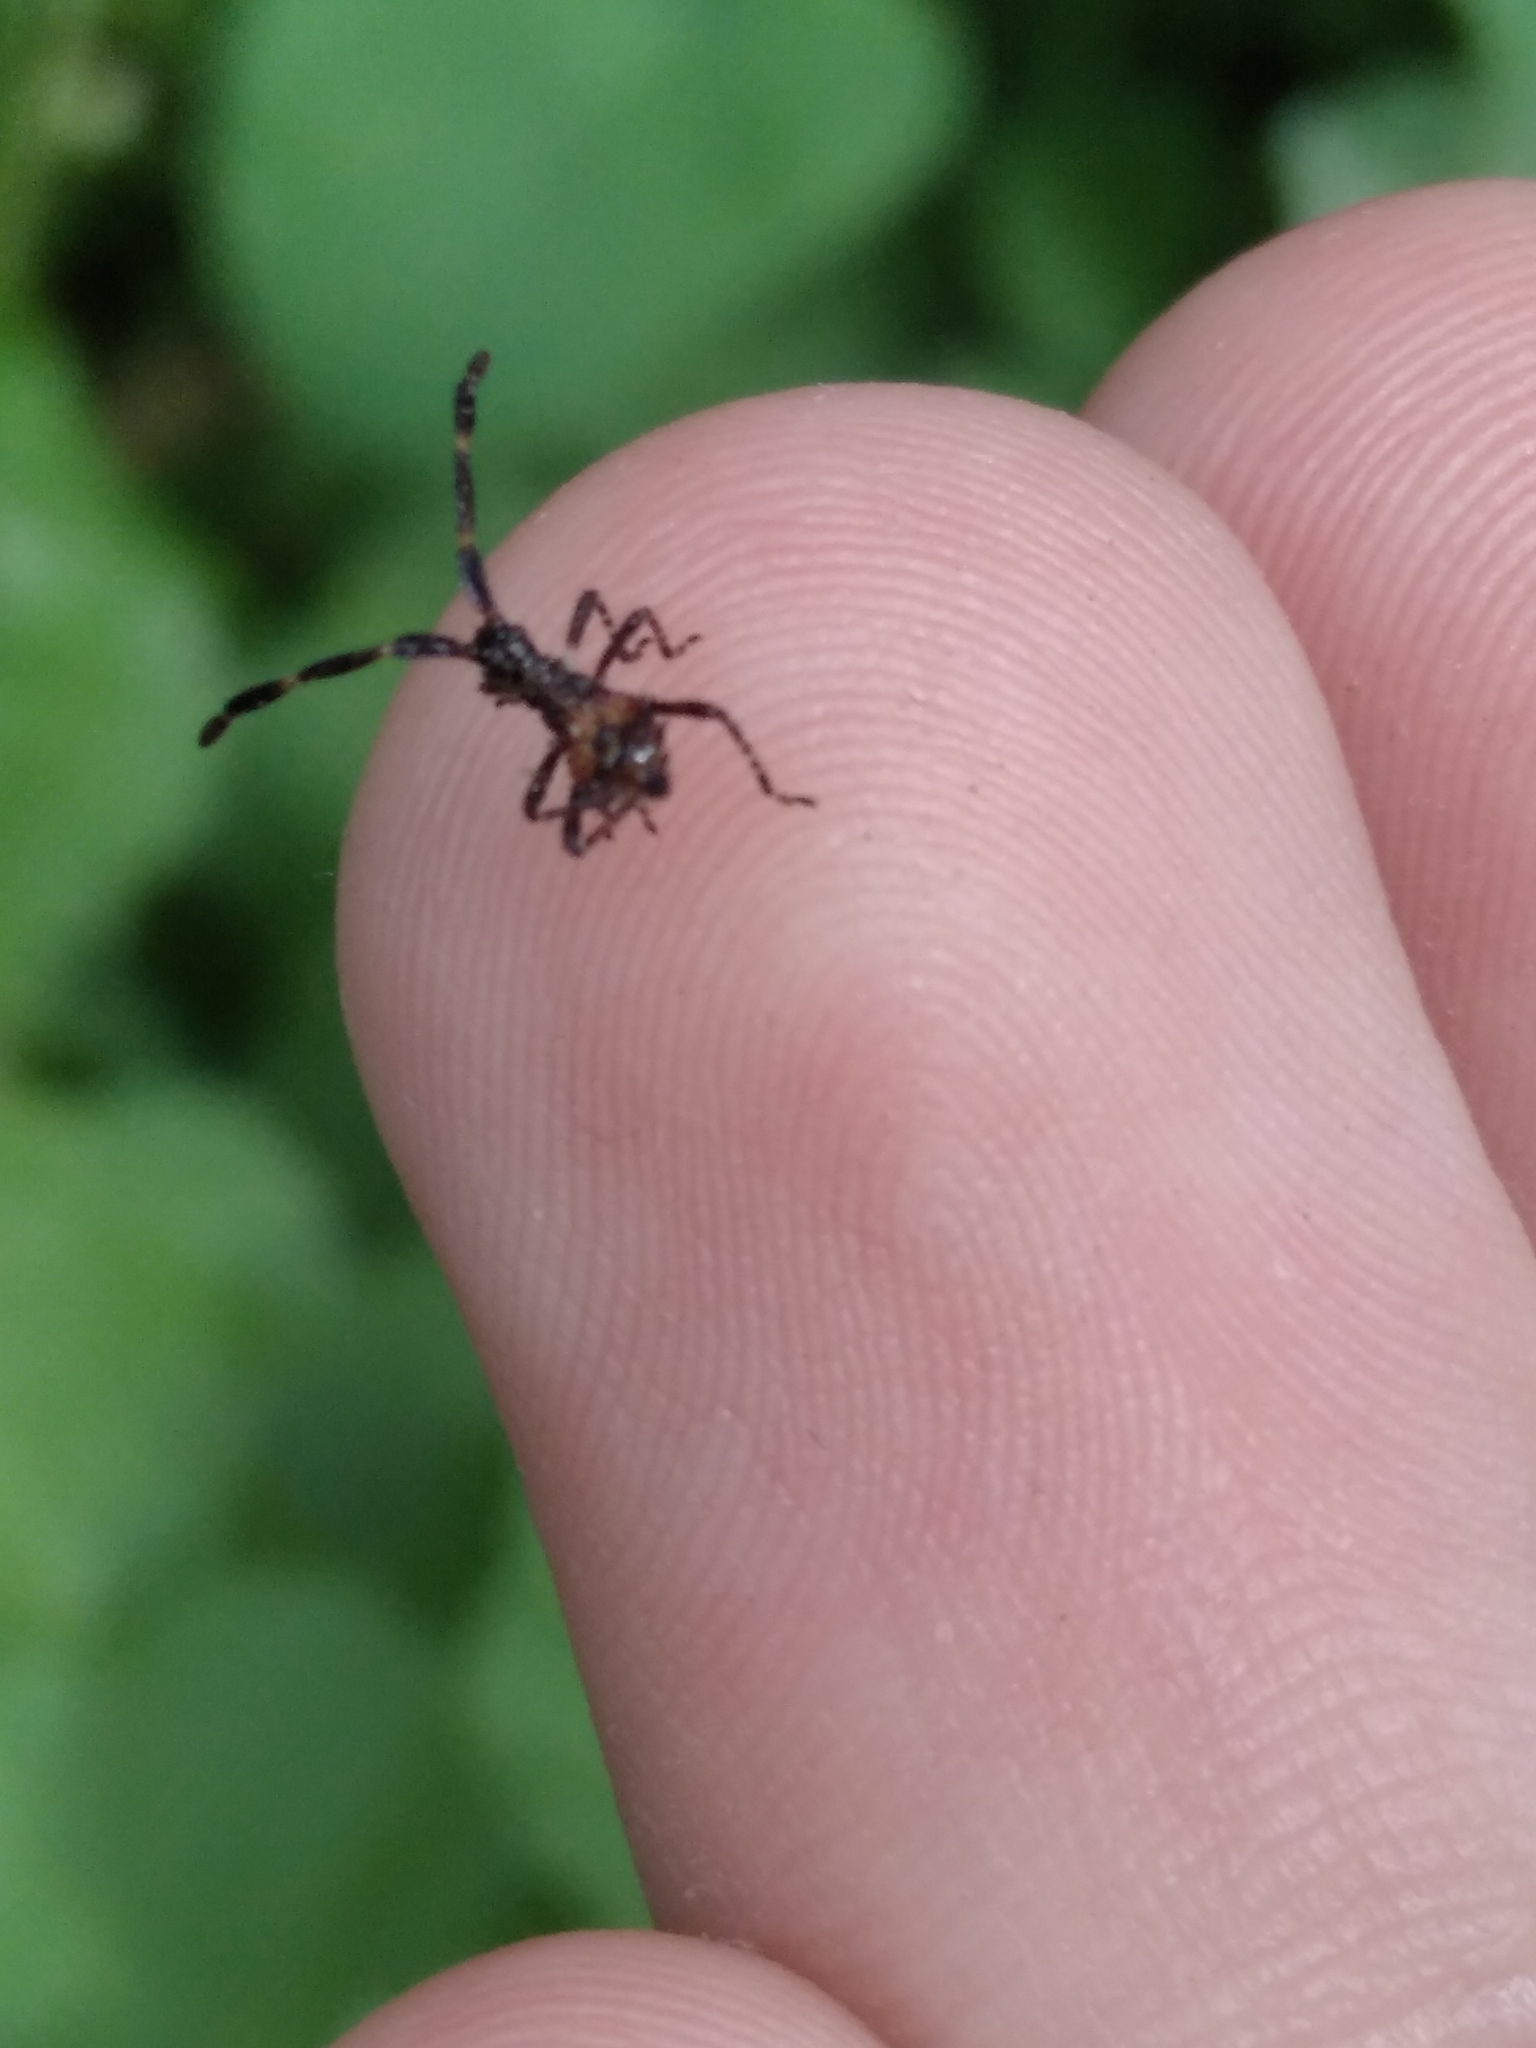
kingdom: Animalia
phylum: Arthropoda
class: Insecta
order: Hemiptera
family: Coreidae
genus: Coreus
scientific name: Coreus marginatus
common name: Dock bug
